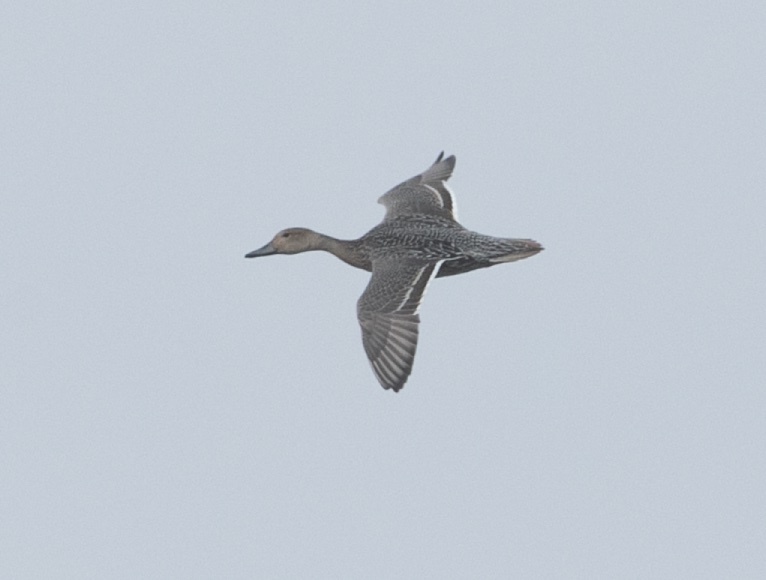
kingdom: Animalia
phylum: Chordata
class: Aves
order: Anseriformes
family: Anatidae
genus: Anas
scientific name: Anas acuta
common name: Northern pintail
